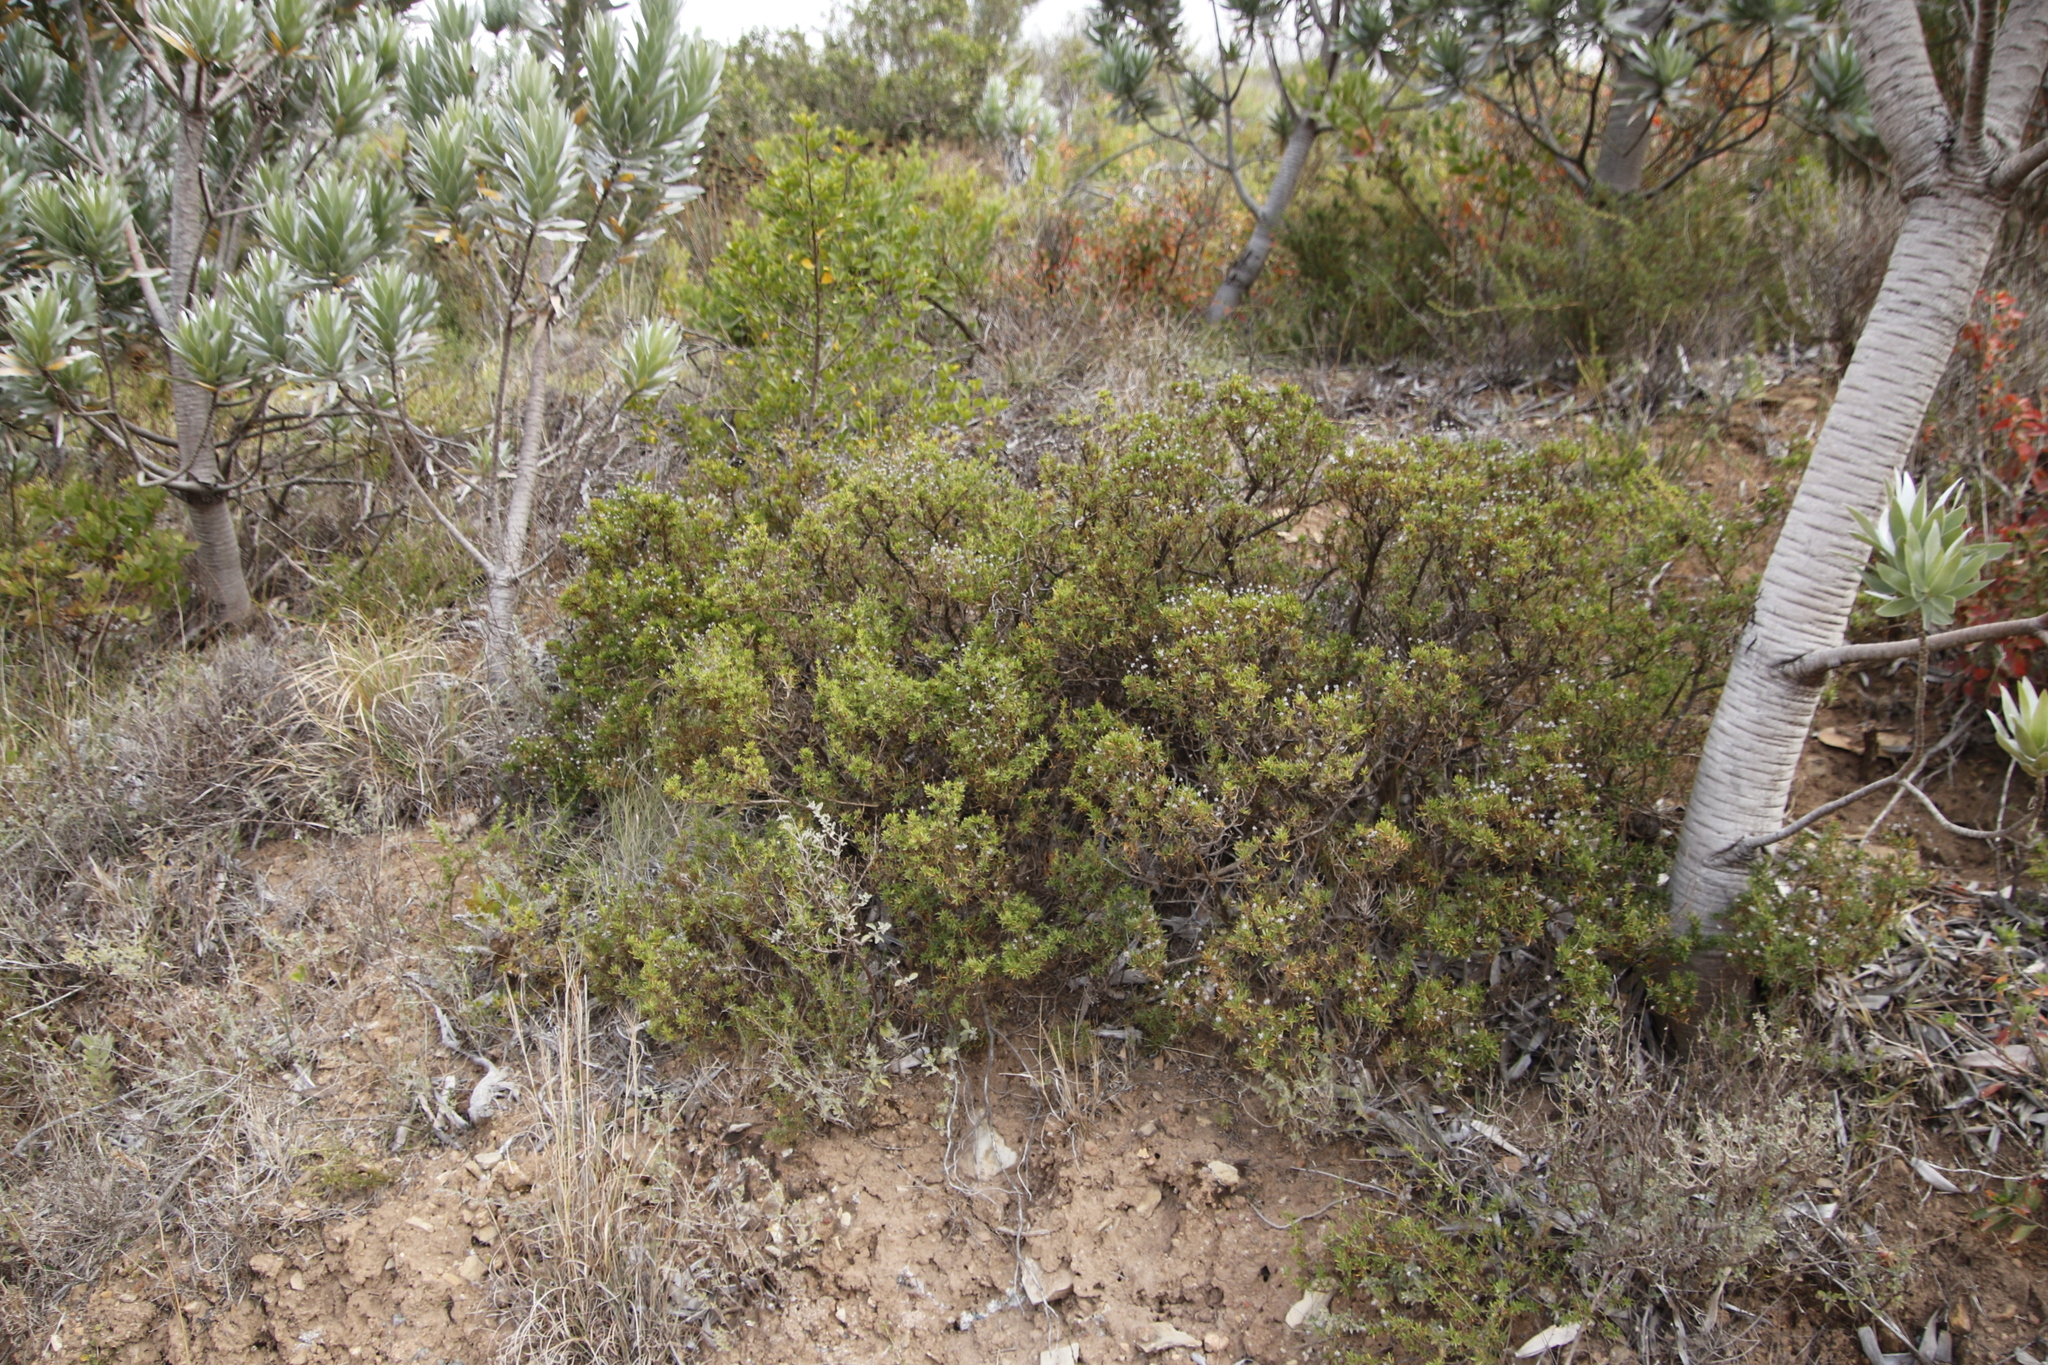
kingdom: Plantae
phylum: Tracheophyta
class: Magnoliopsida
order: Asterales
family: Asteraceae
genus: Felicia
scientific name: Felicia fruticosa
